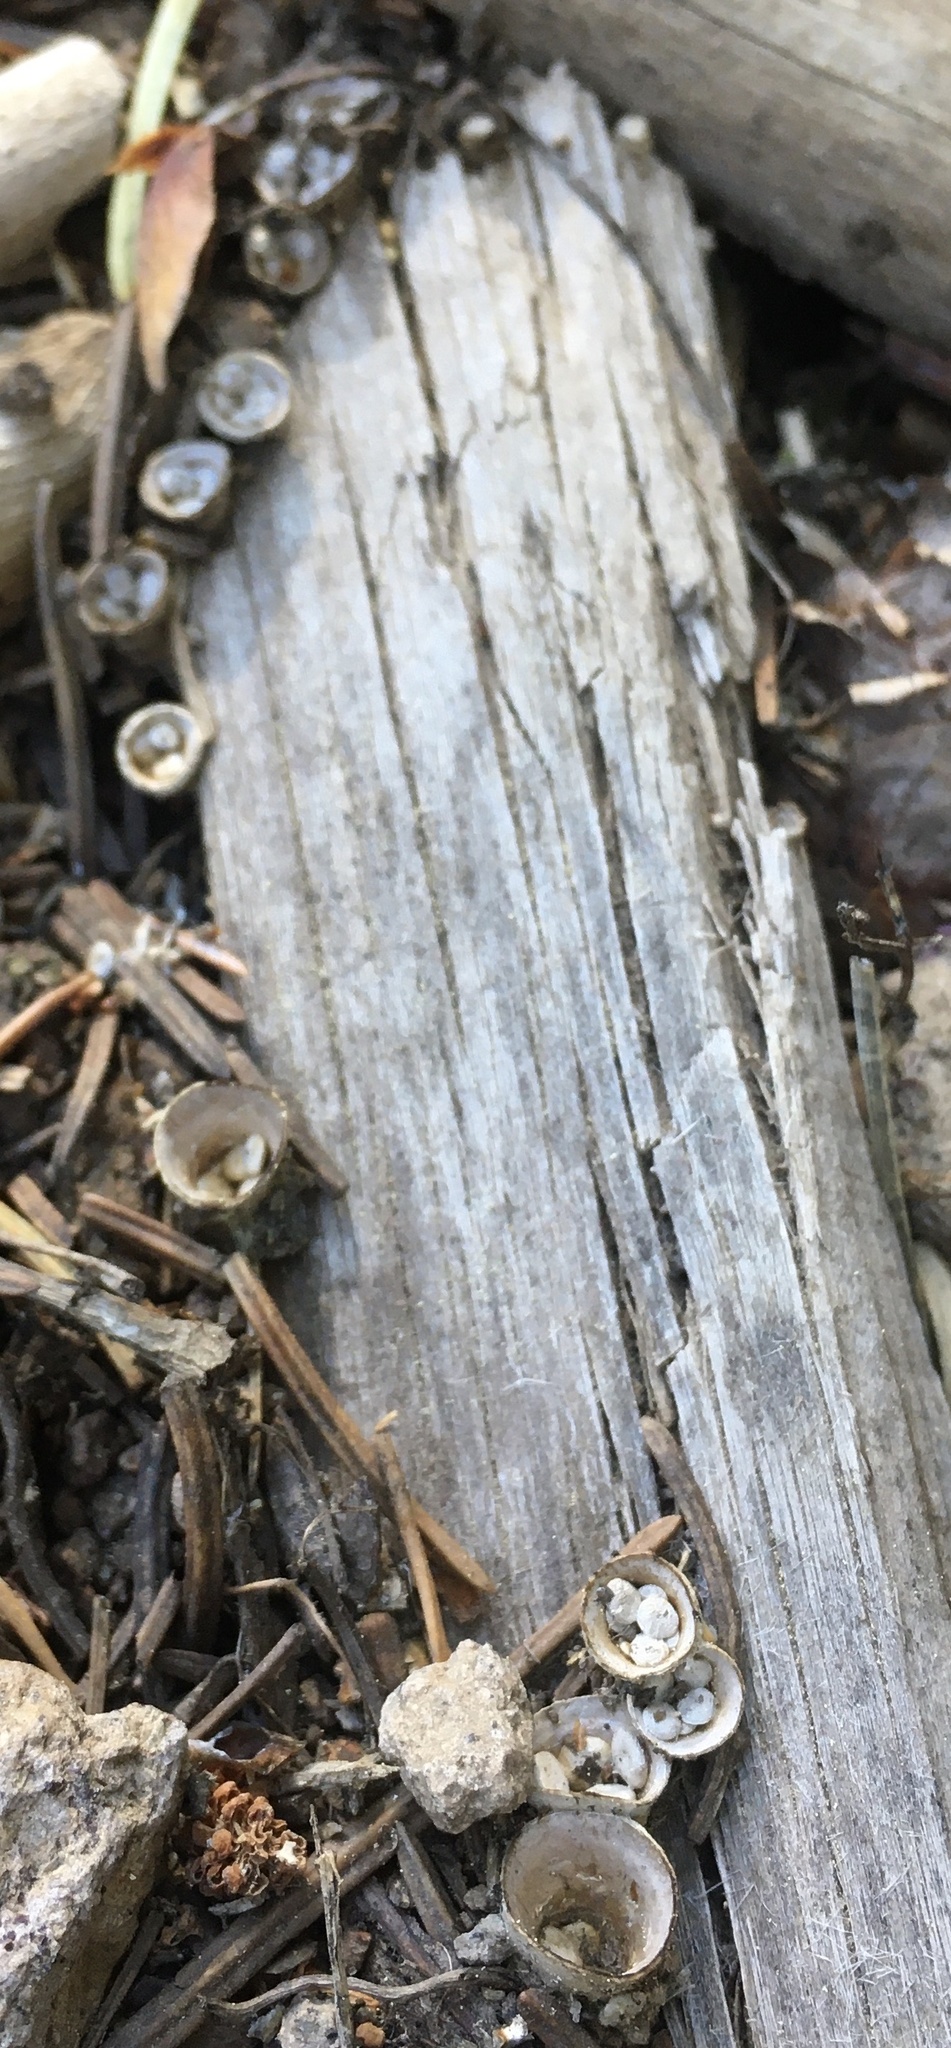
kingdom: Fungi
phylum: Basidiomycota
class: Agaricomycetes
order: Agaricales
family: Nidulariaceae
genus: Crucibulum
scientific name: Crucibulum cyathiforme
